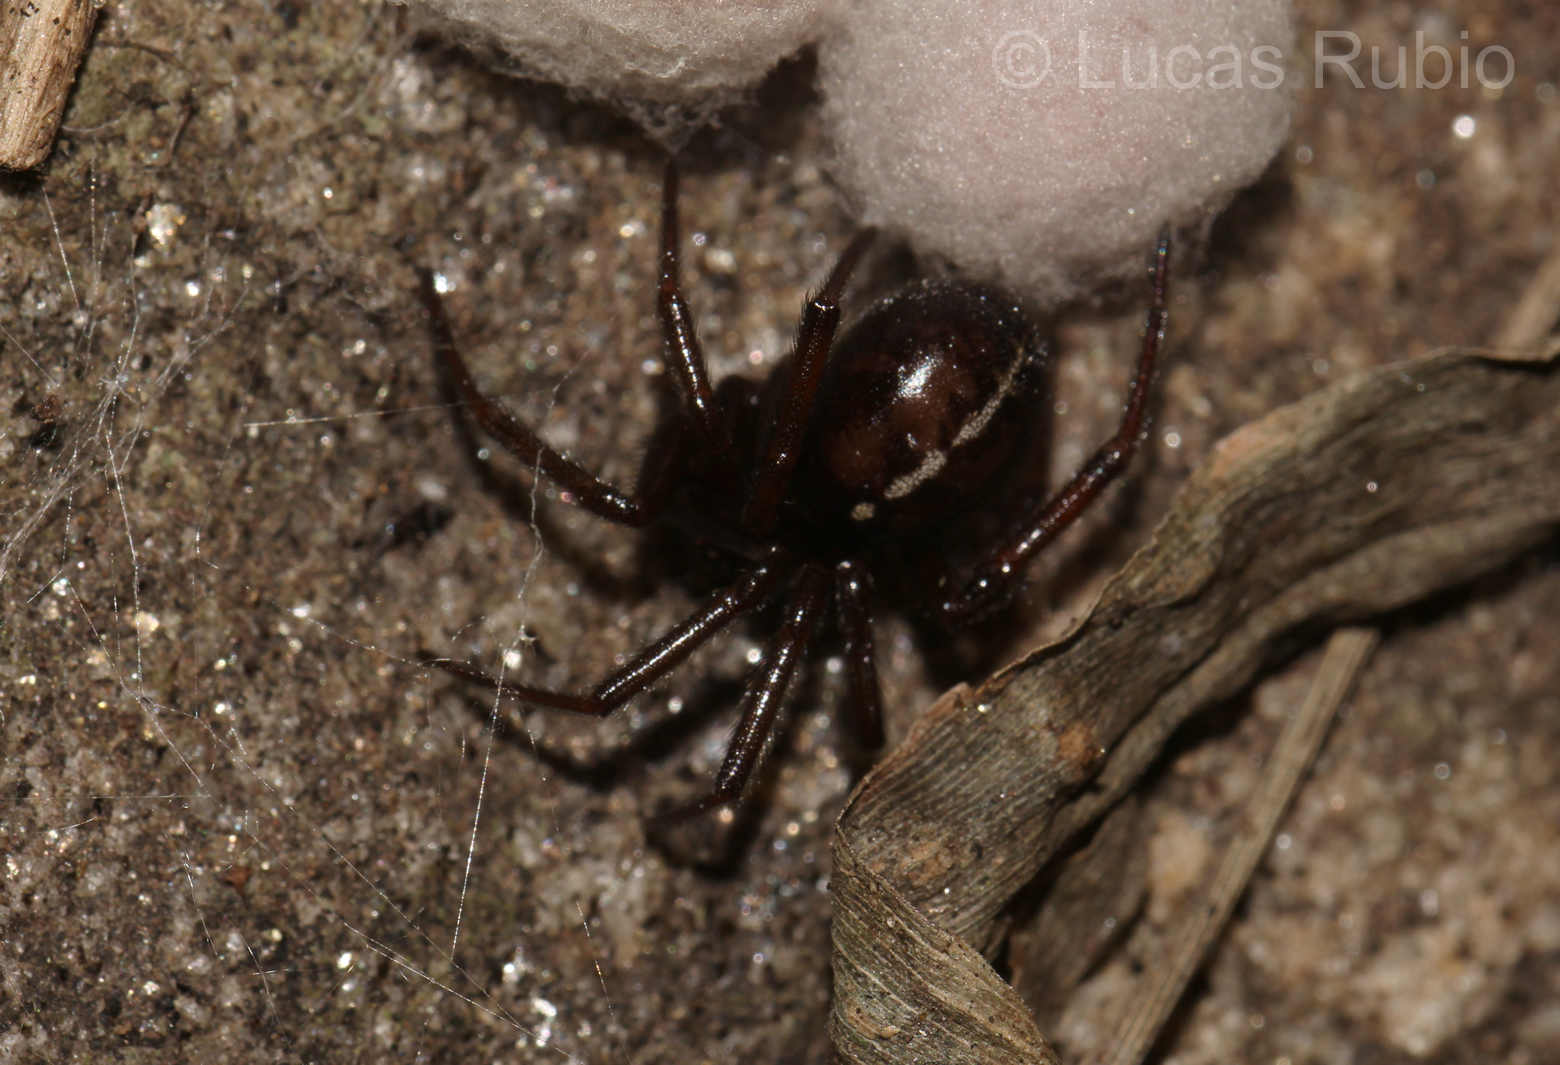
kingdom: Animalia
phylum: Arthropoda
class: Arachnida
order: Araneae
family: Theridiidae
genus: Steatoda
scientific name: Steatoda sabulosa
